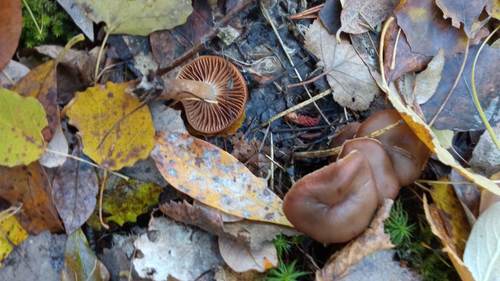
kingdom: Fungi
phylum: Basidiomycota
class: Agaricomycetes
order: Agaricales
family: Cortinariaceae
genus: Cortinarius
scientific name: Cortinarius
